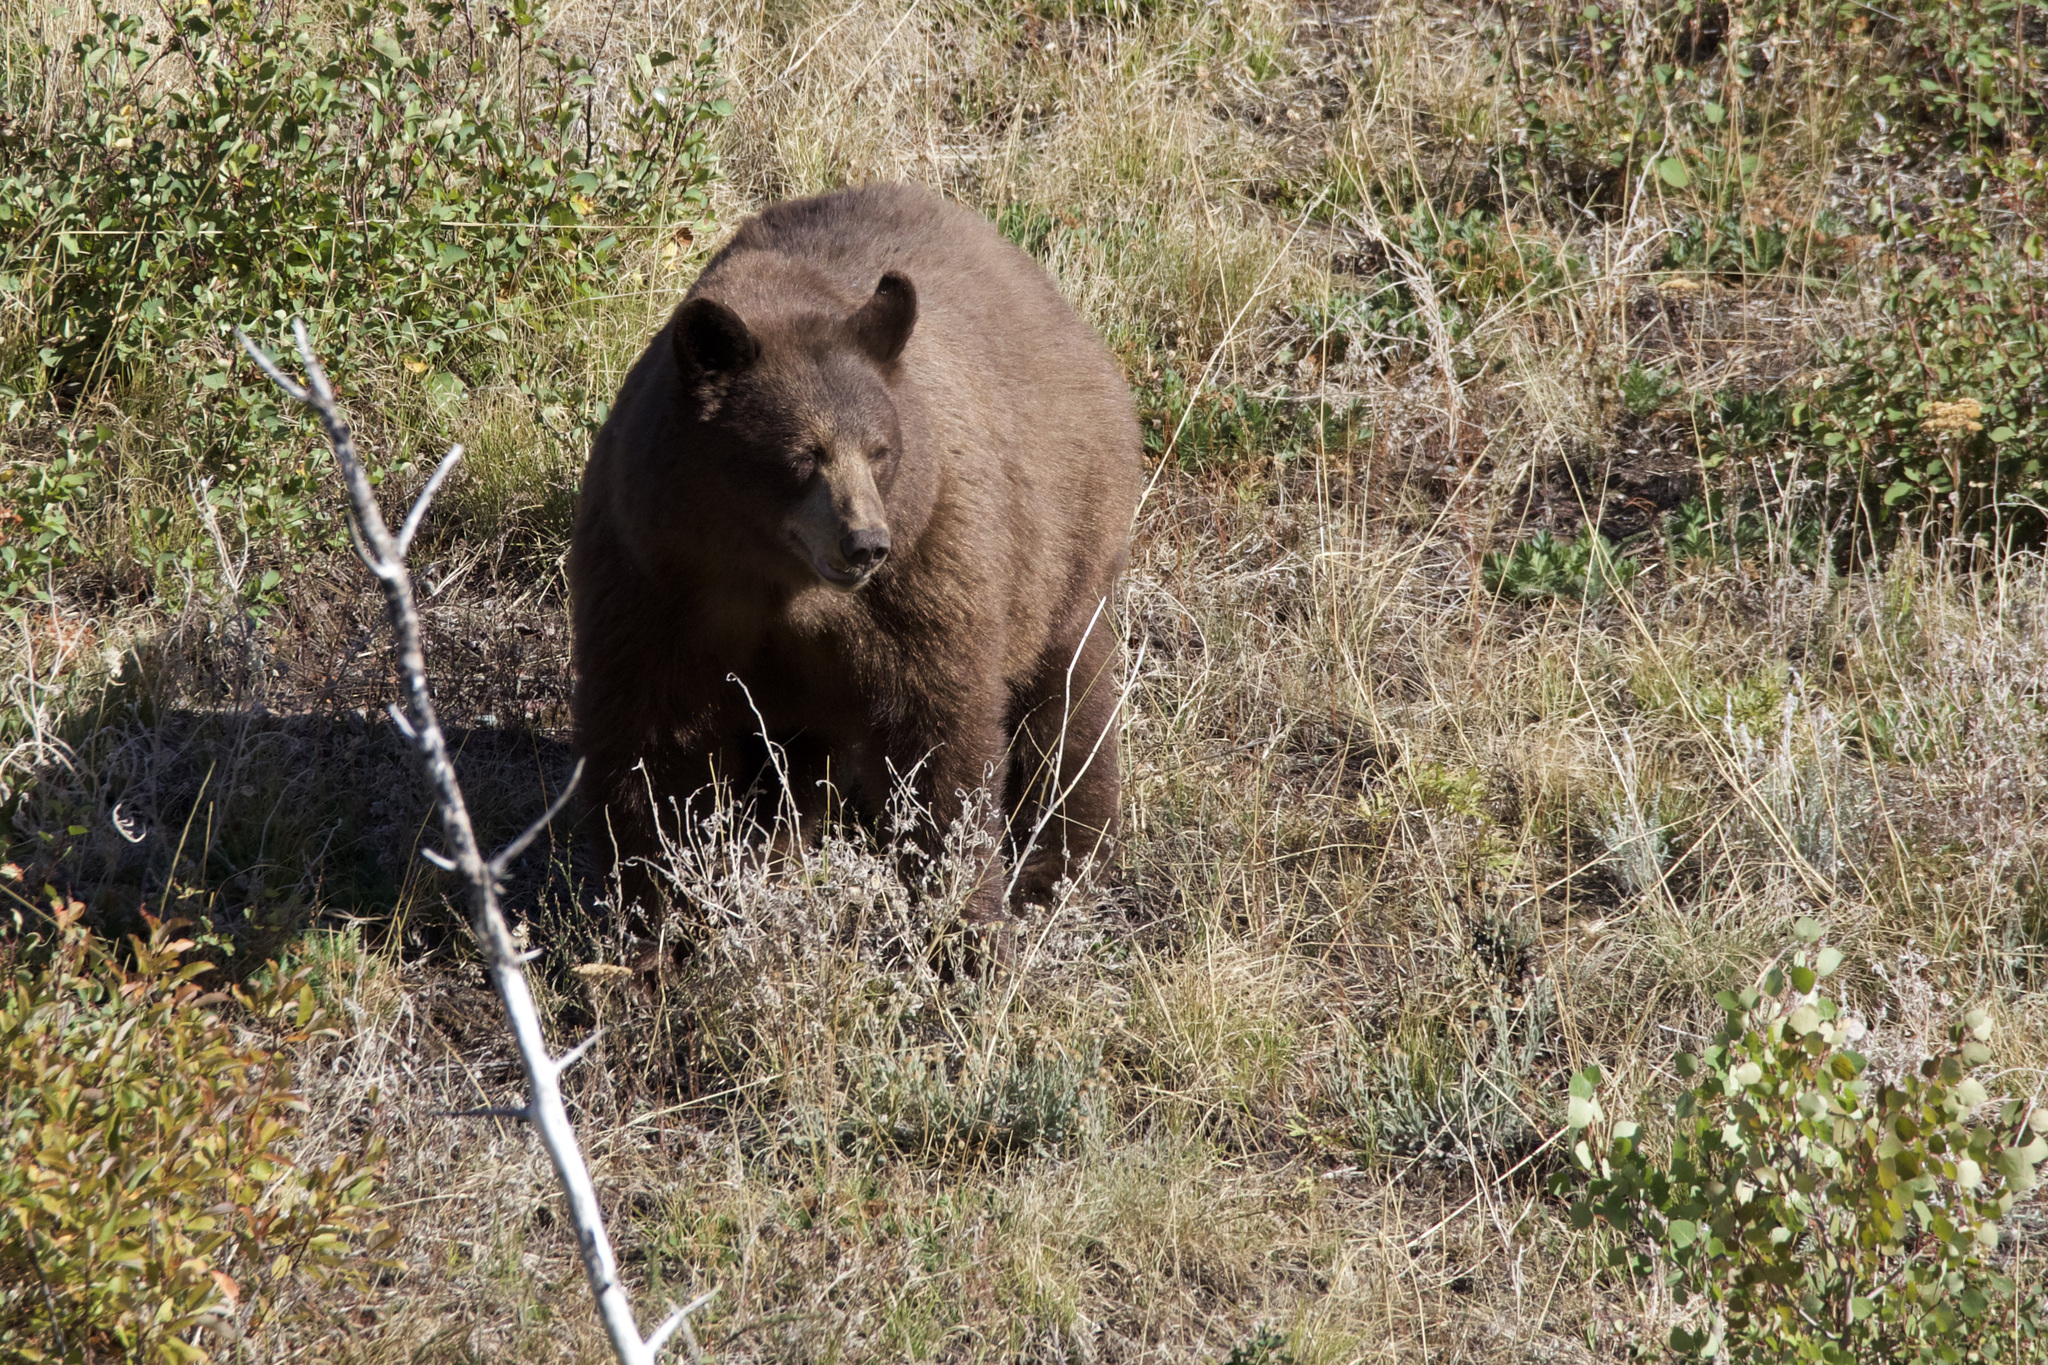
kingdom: Animalia
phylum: Chordata
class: Mammalia
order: Carnivora
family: Ursidae
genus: Ursus
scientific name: Ursus americanus
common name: American black bear
